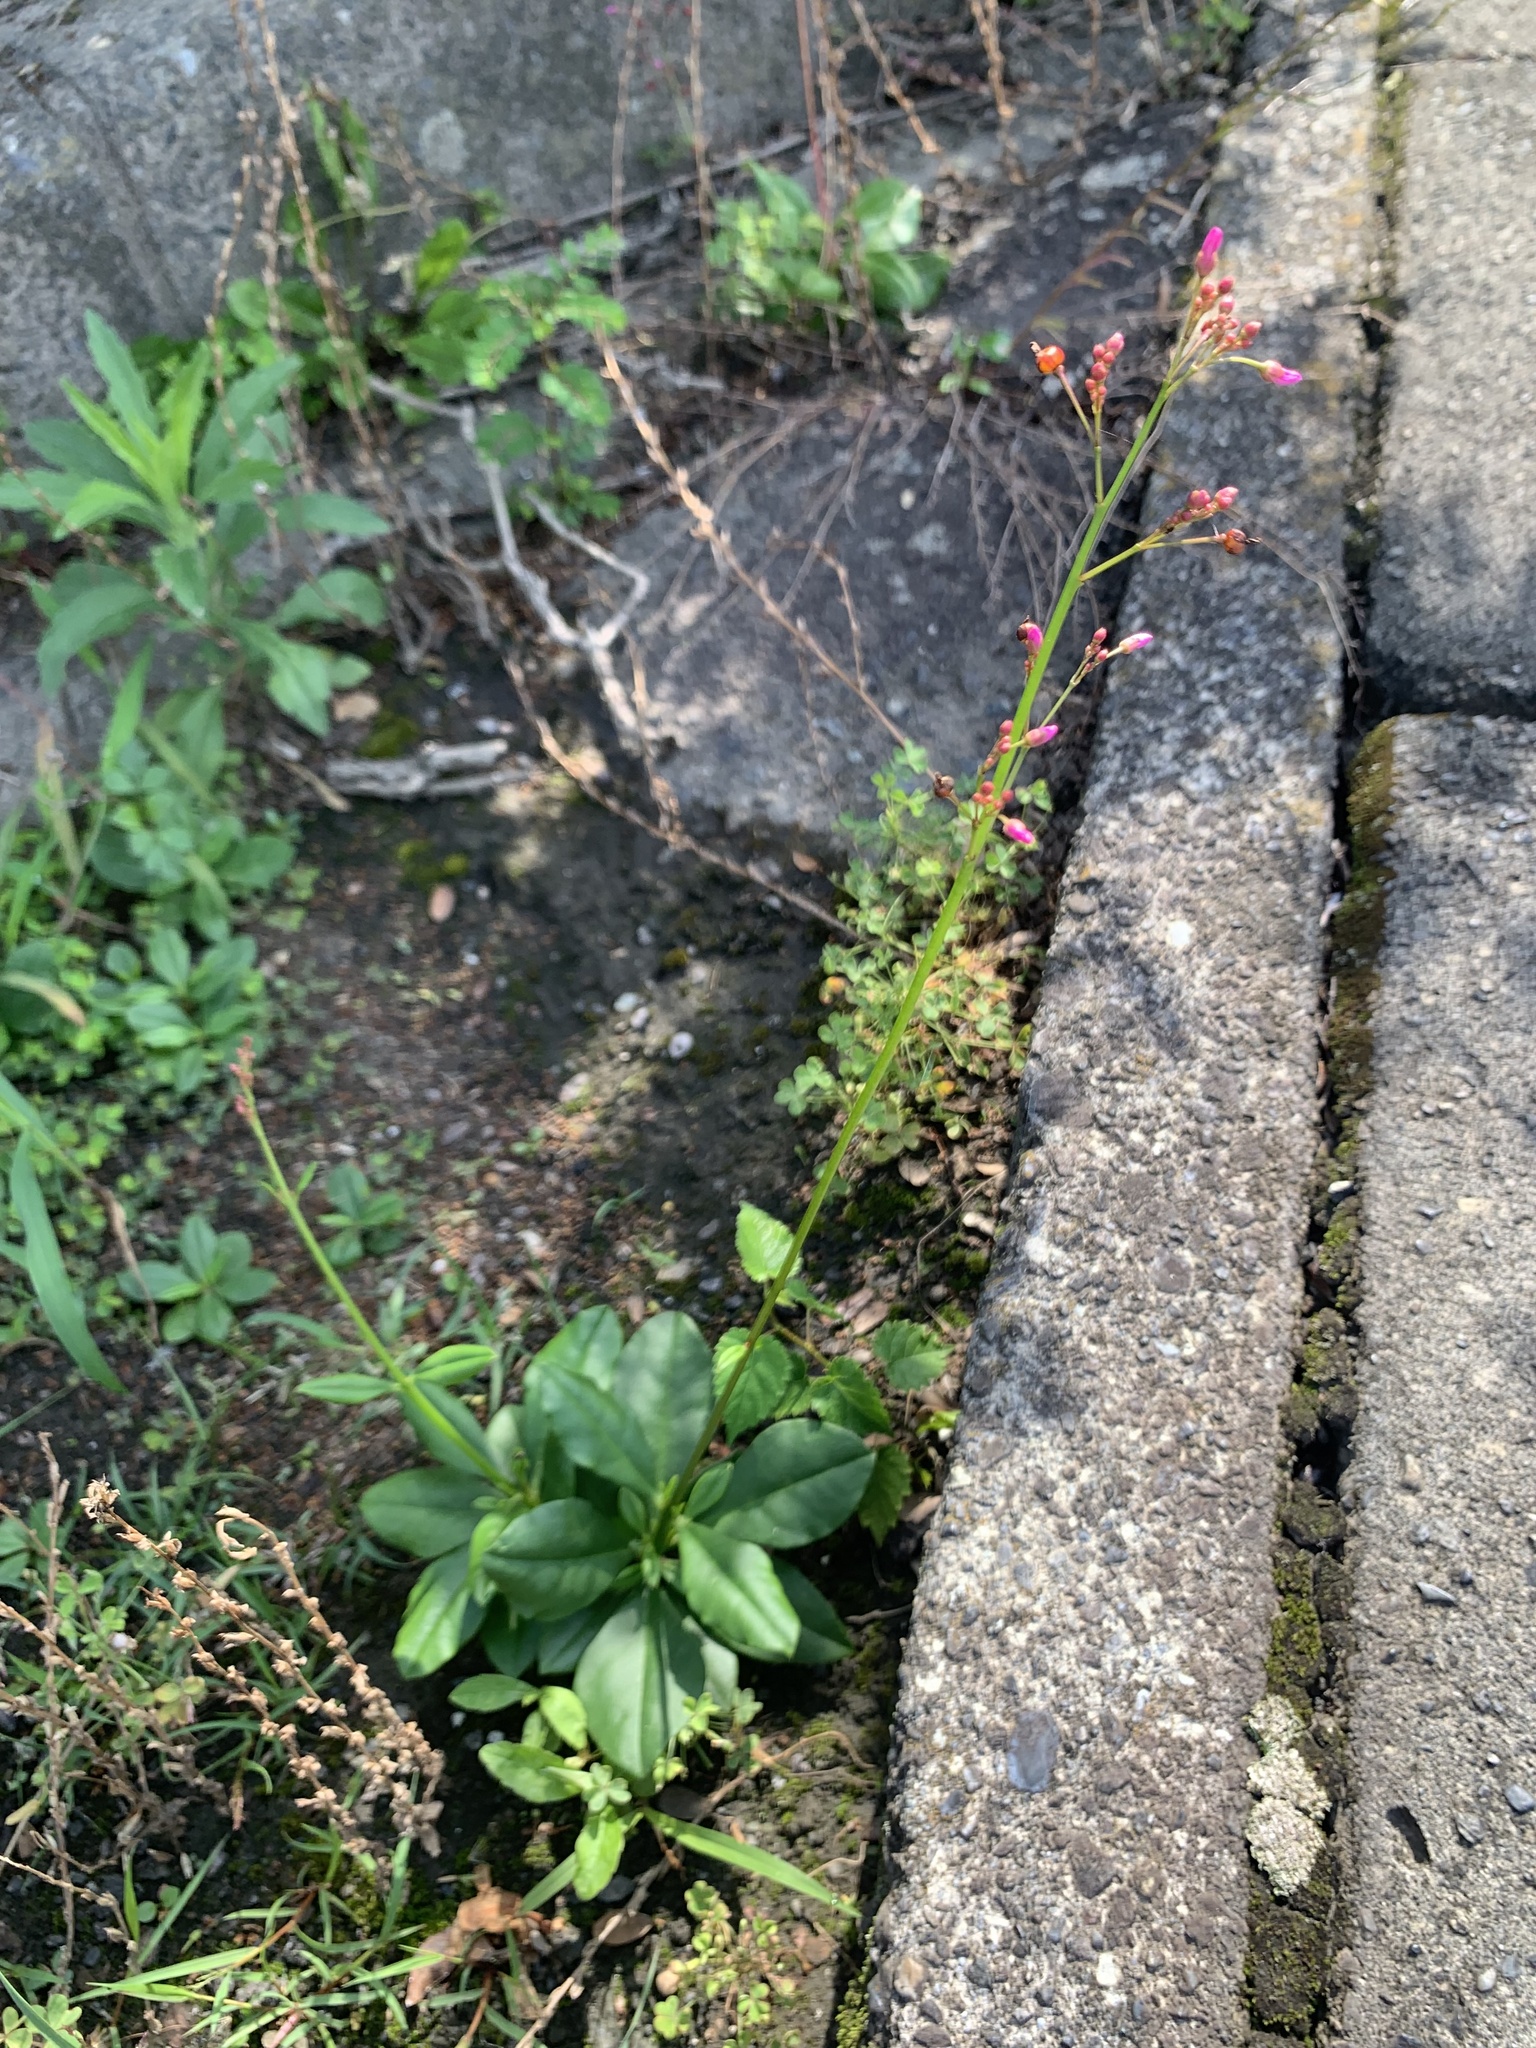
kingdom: Plantae
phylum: Tracheophyta
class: Magnoliopsida
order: Caryophyllales
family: Talinaceae
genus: Talinum
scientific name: Talinum paniculatum
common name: Jewels of opar
